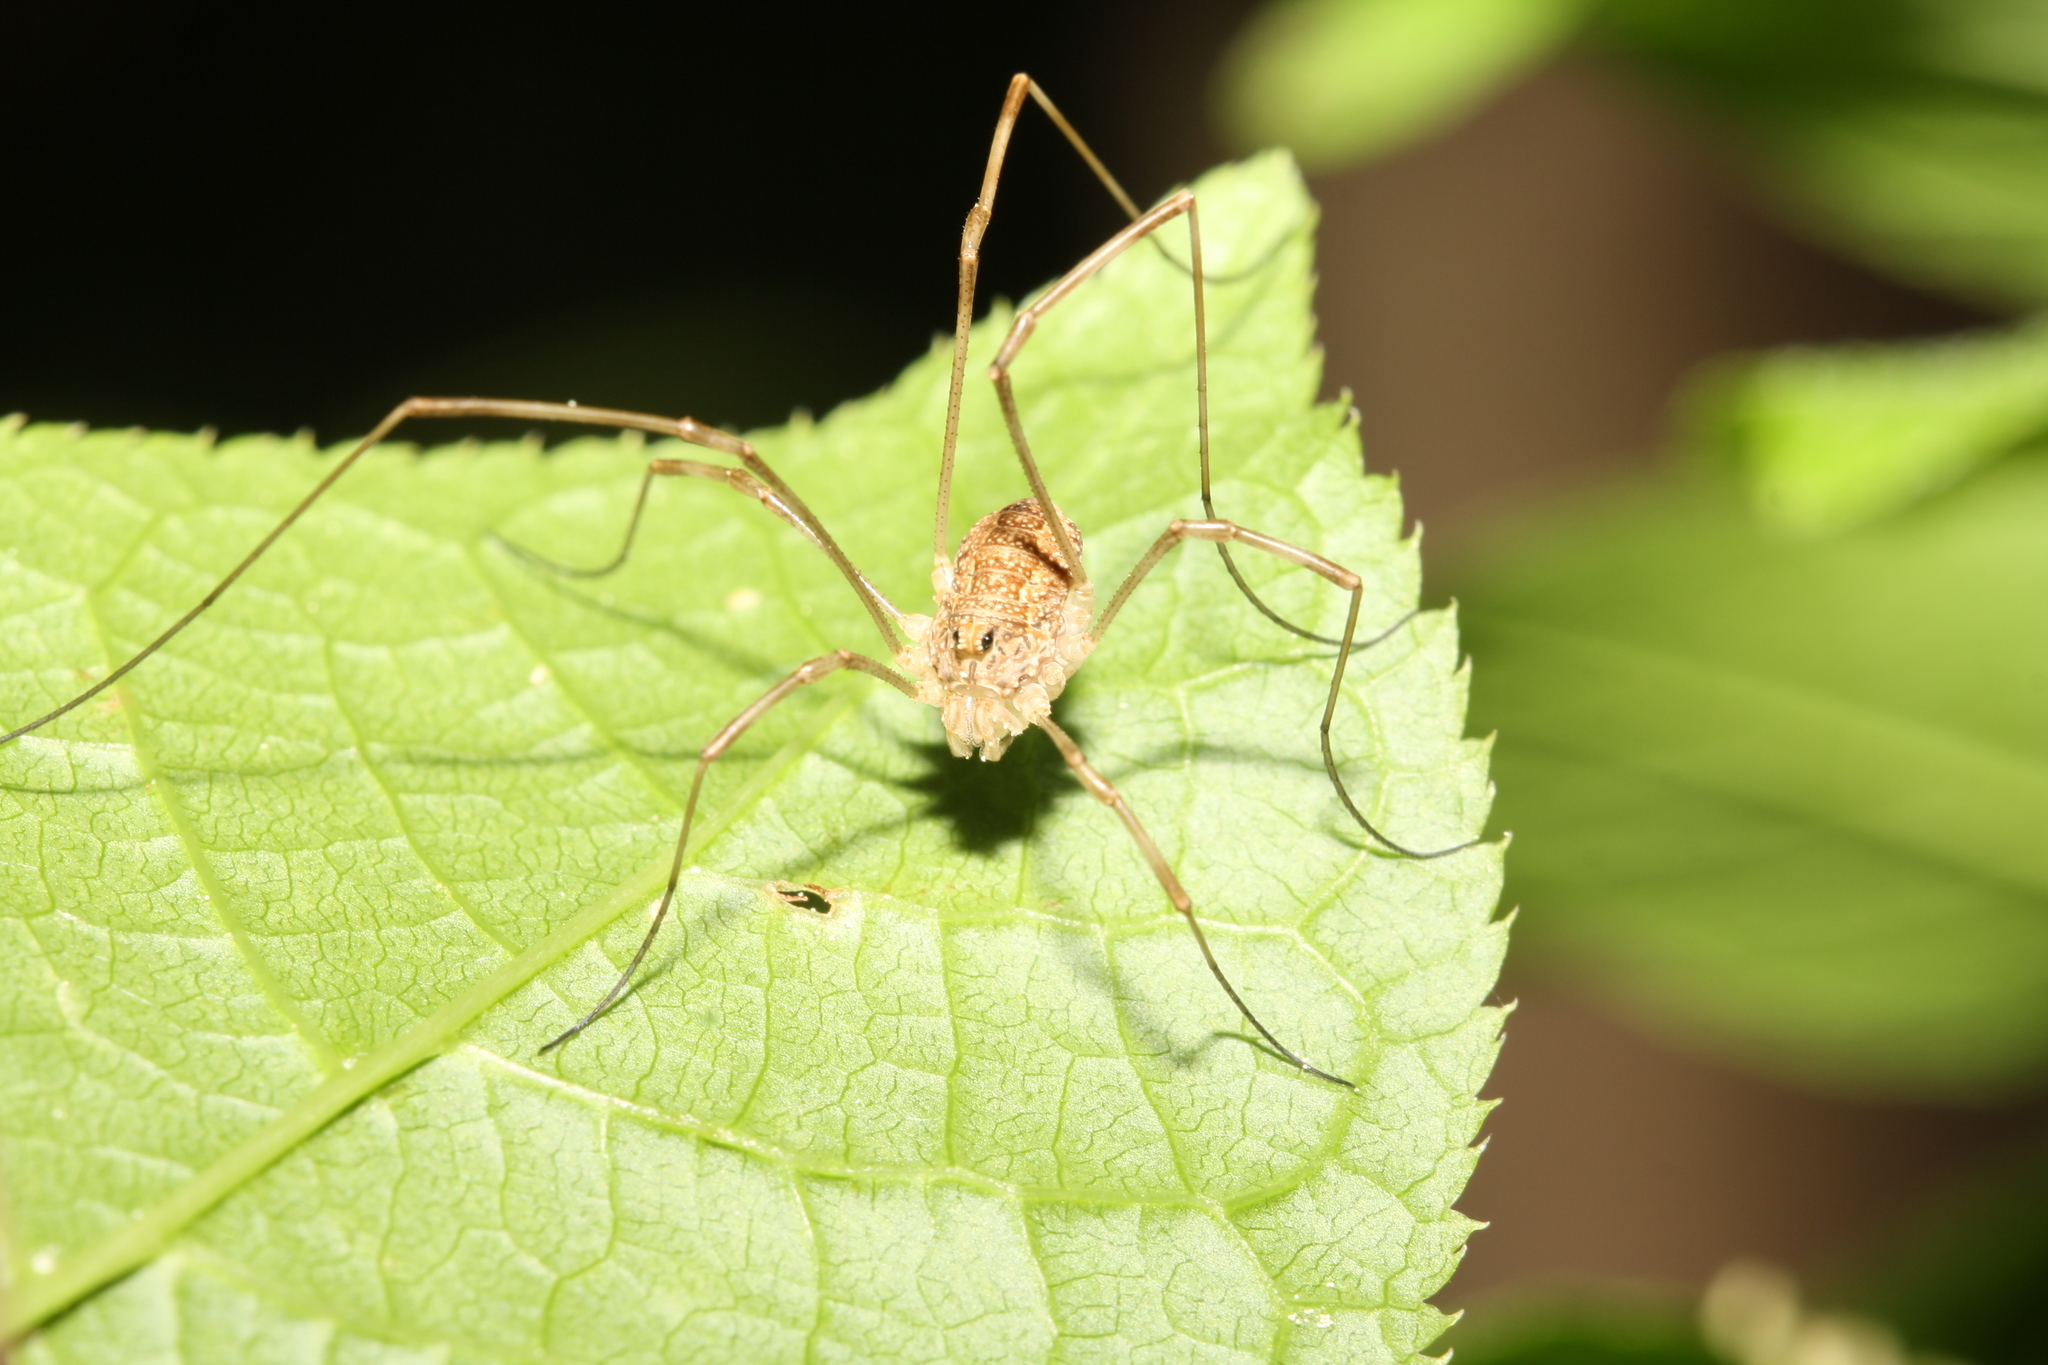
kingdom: Animalia
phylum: Arthropoda
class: Arachnida
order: Opiliones
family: Phalangiidae
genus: Rilaena
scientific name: Rilaena triangularis
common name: Spring harvestman
